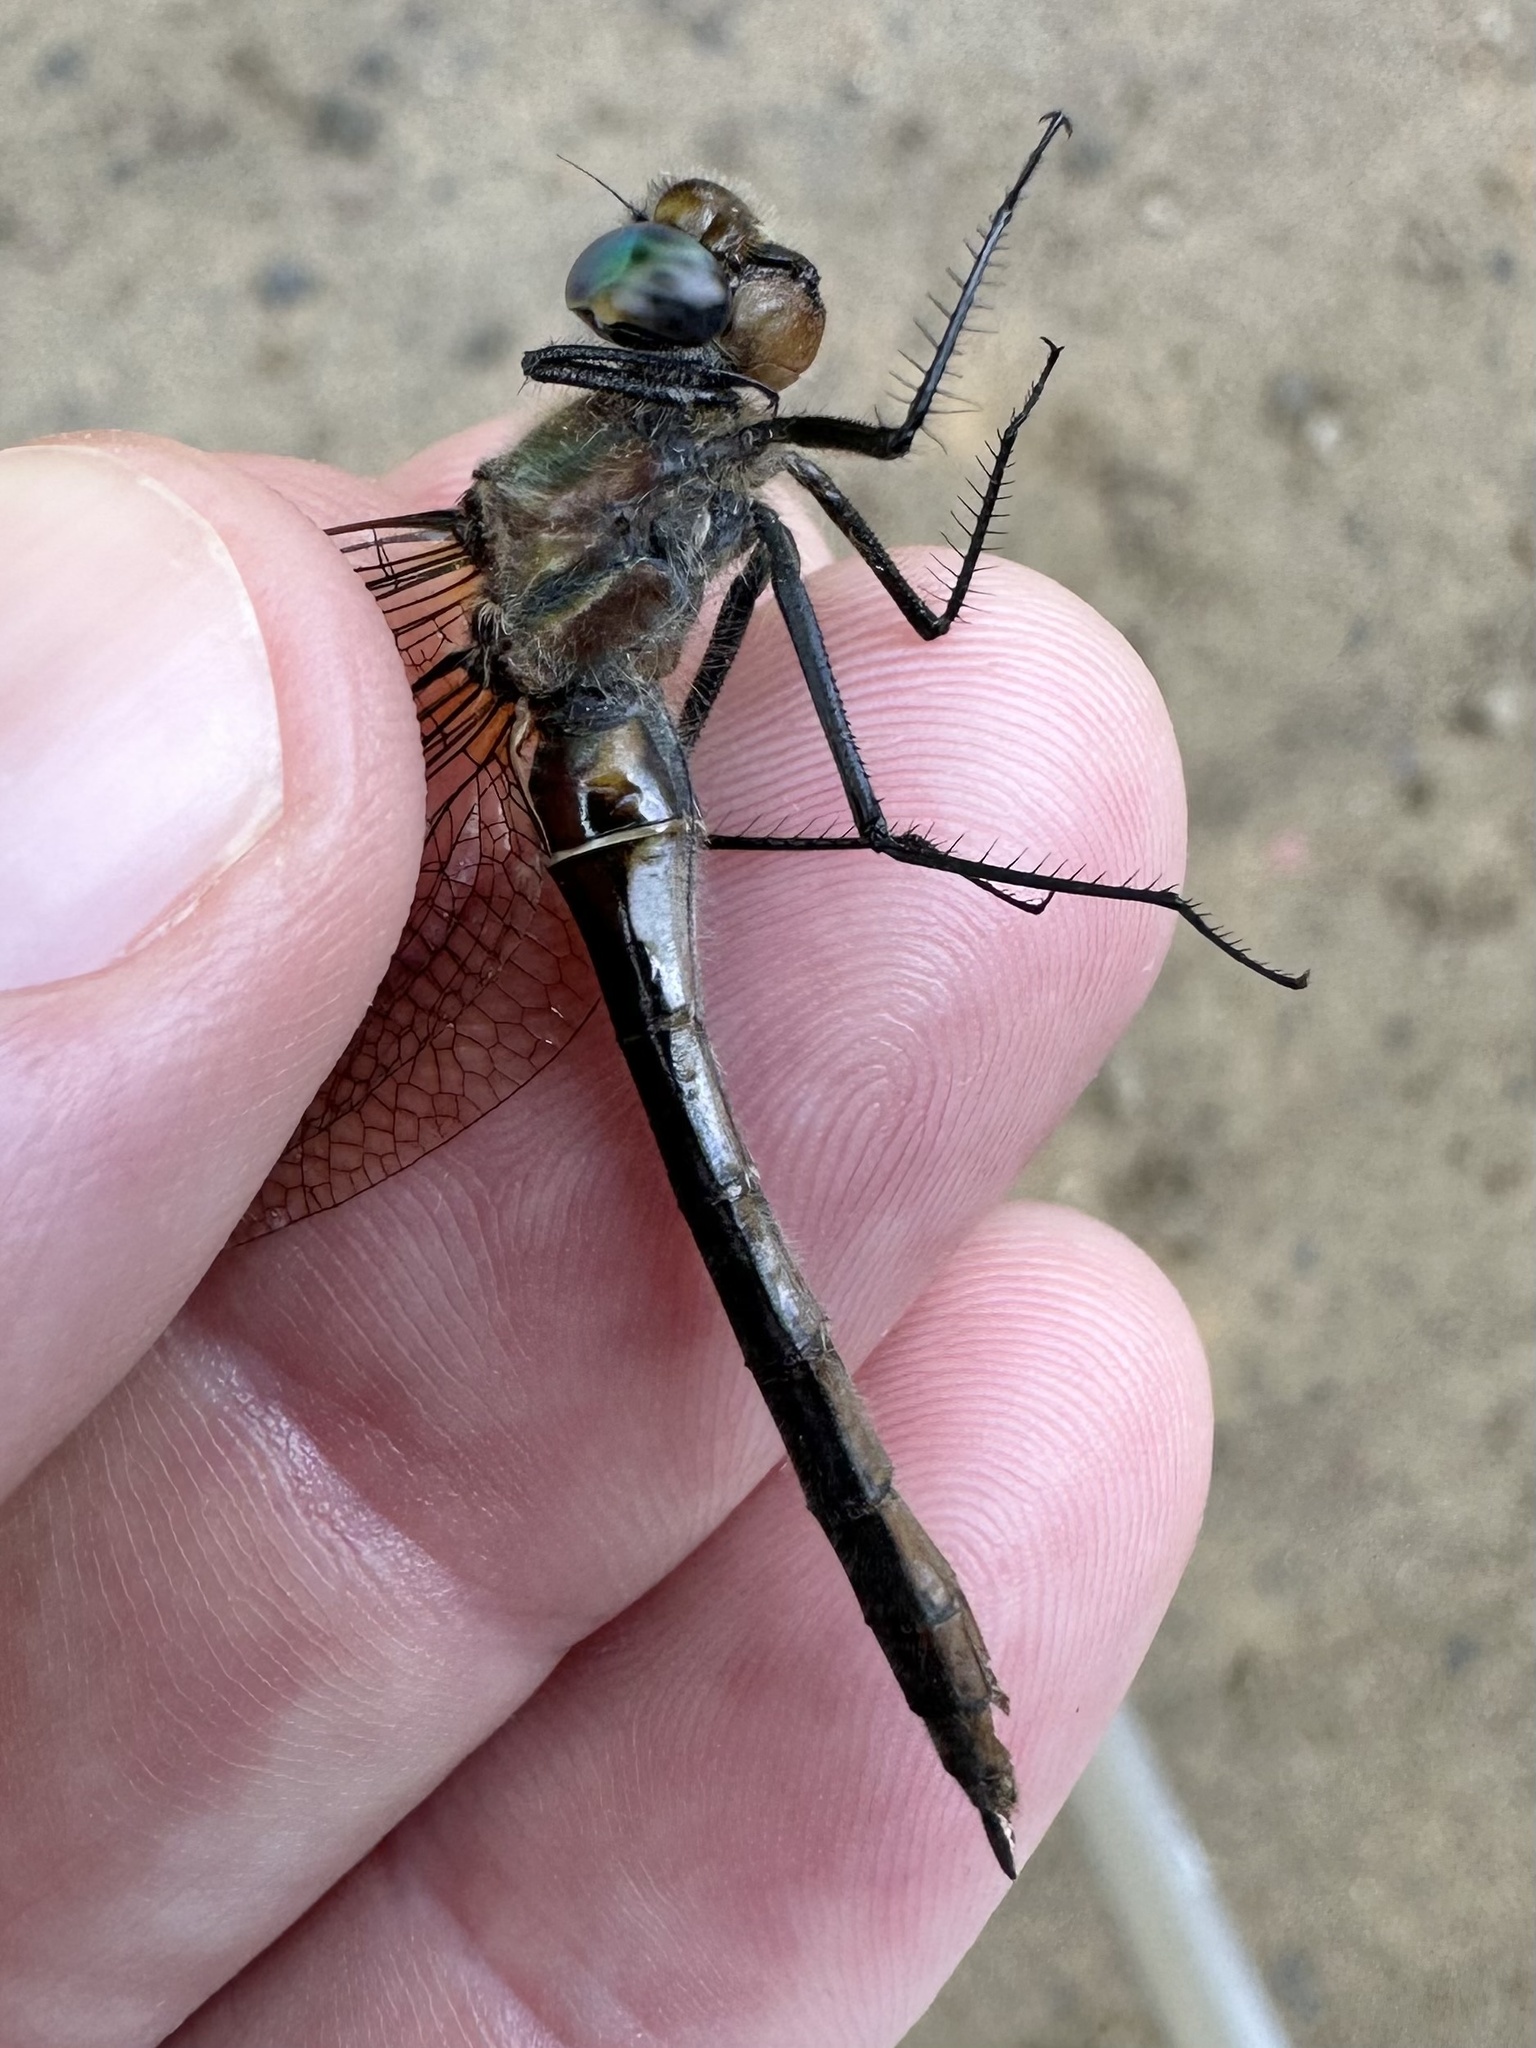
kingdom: Animalia
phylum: Arthropoda
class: Insecta
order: Odonata
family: Corduliidae
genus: Cordulia
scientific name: Cordulia shurtleffii
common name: American emerald
